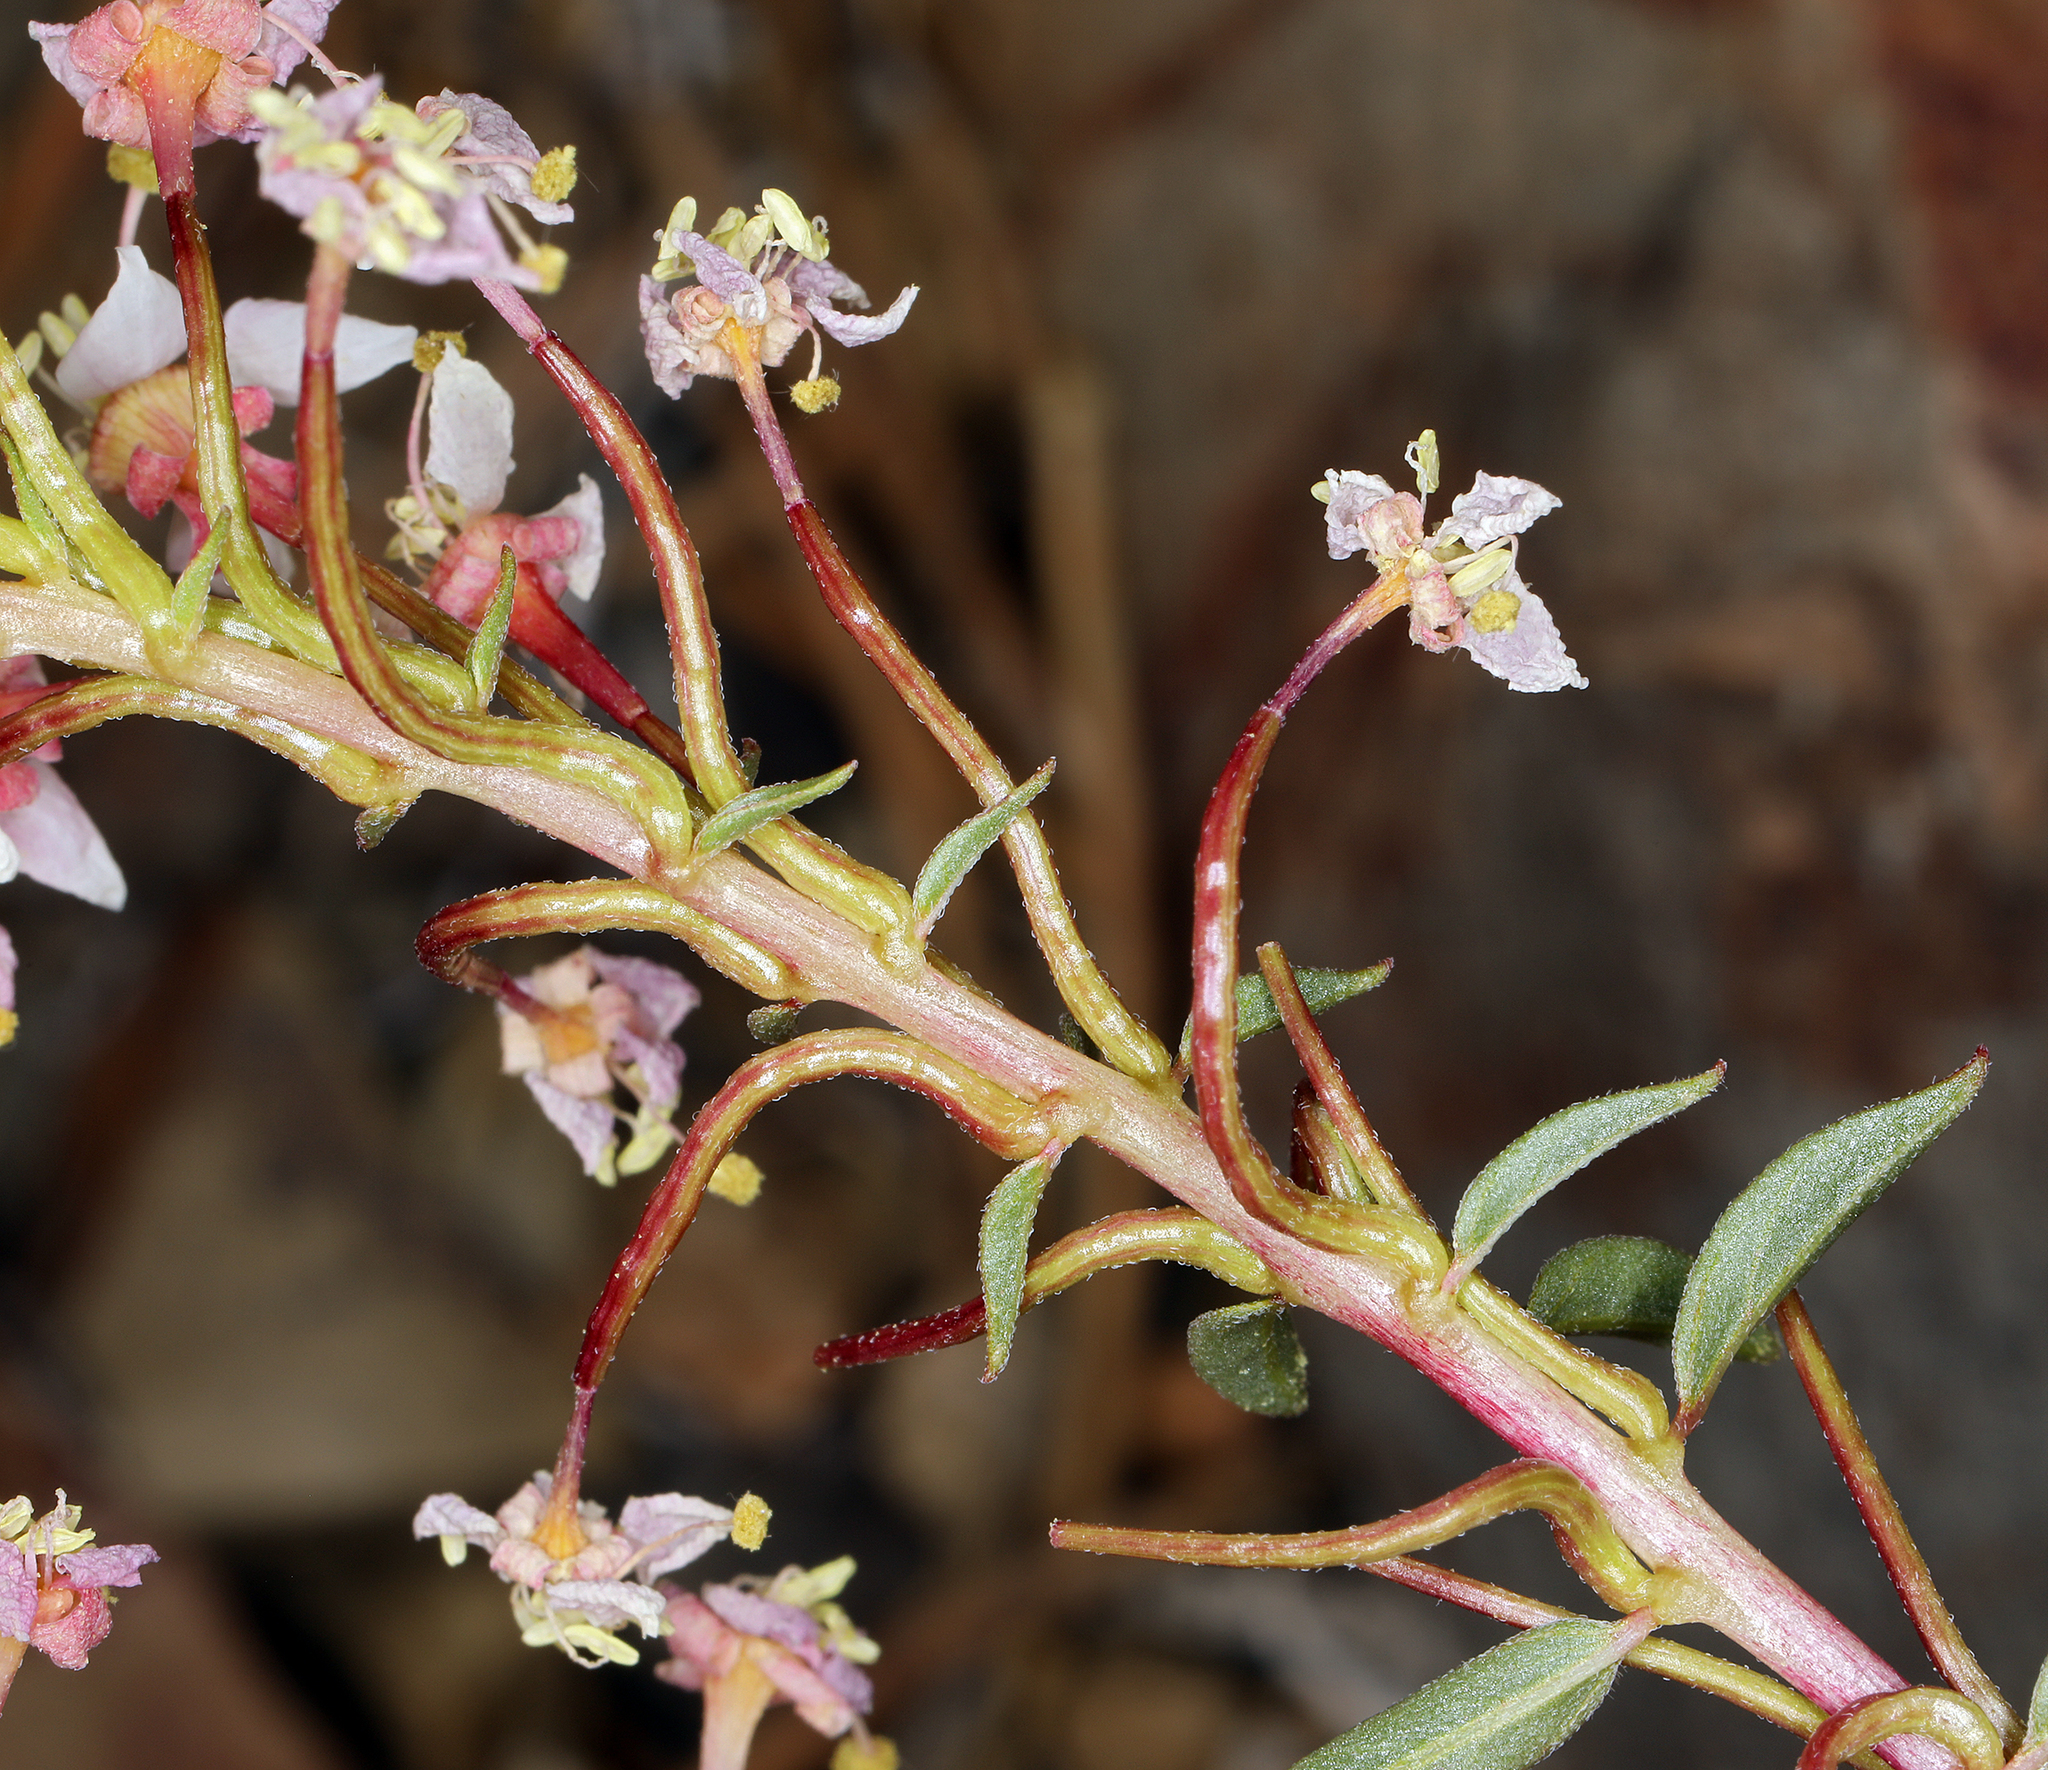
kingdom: Plantae
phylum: Tracheophyta
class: Magnoliopsida
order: Myrtales
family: Onagraceae
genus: Eremothera
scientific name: Eremothera boothii
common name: Booth's evening primrose
